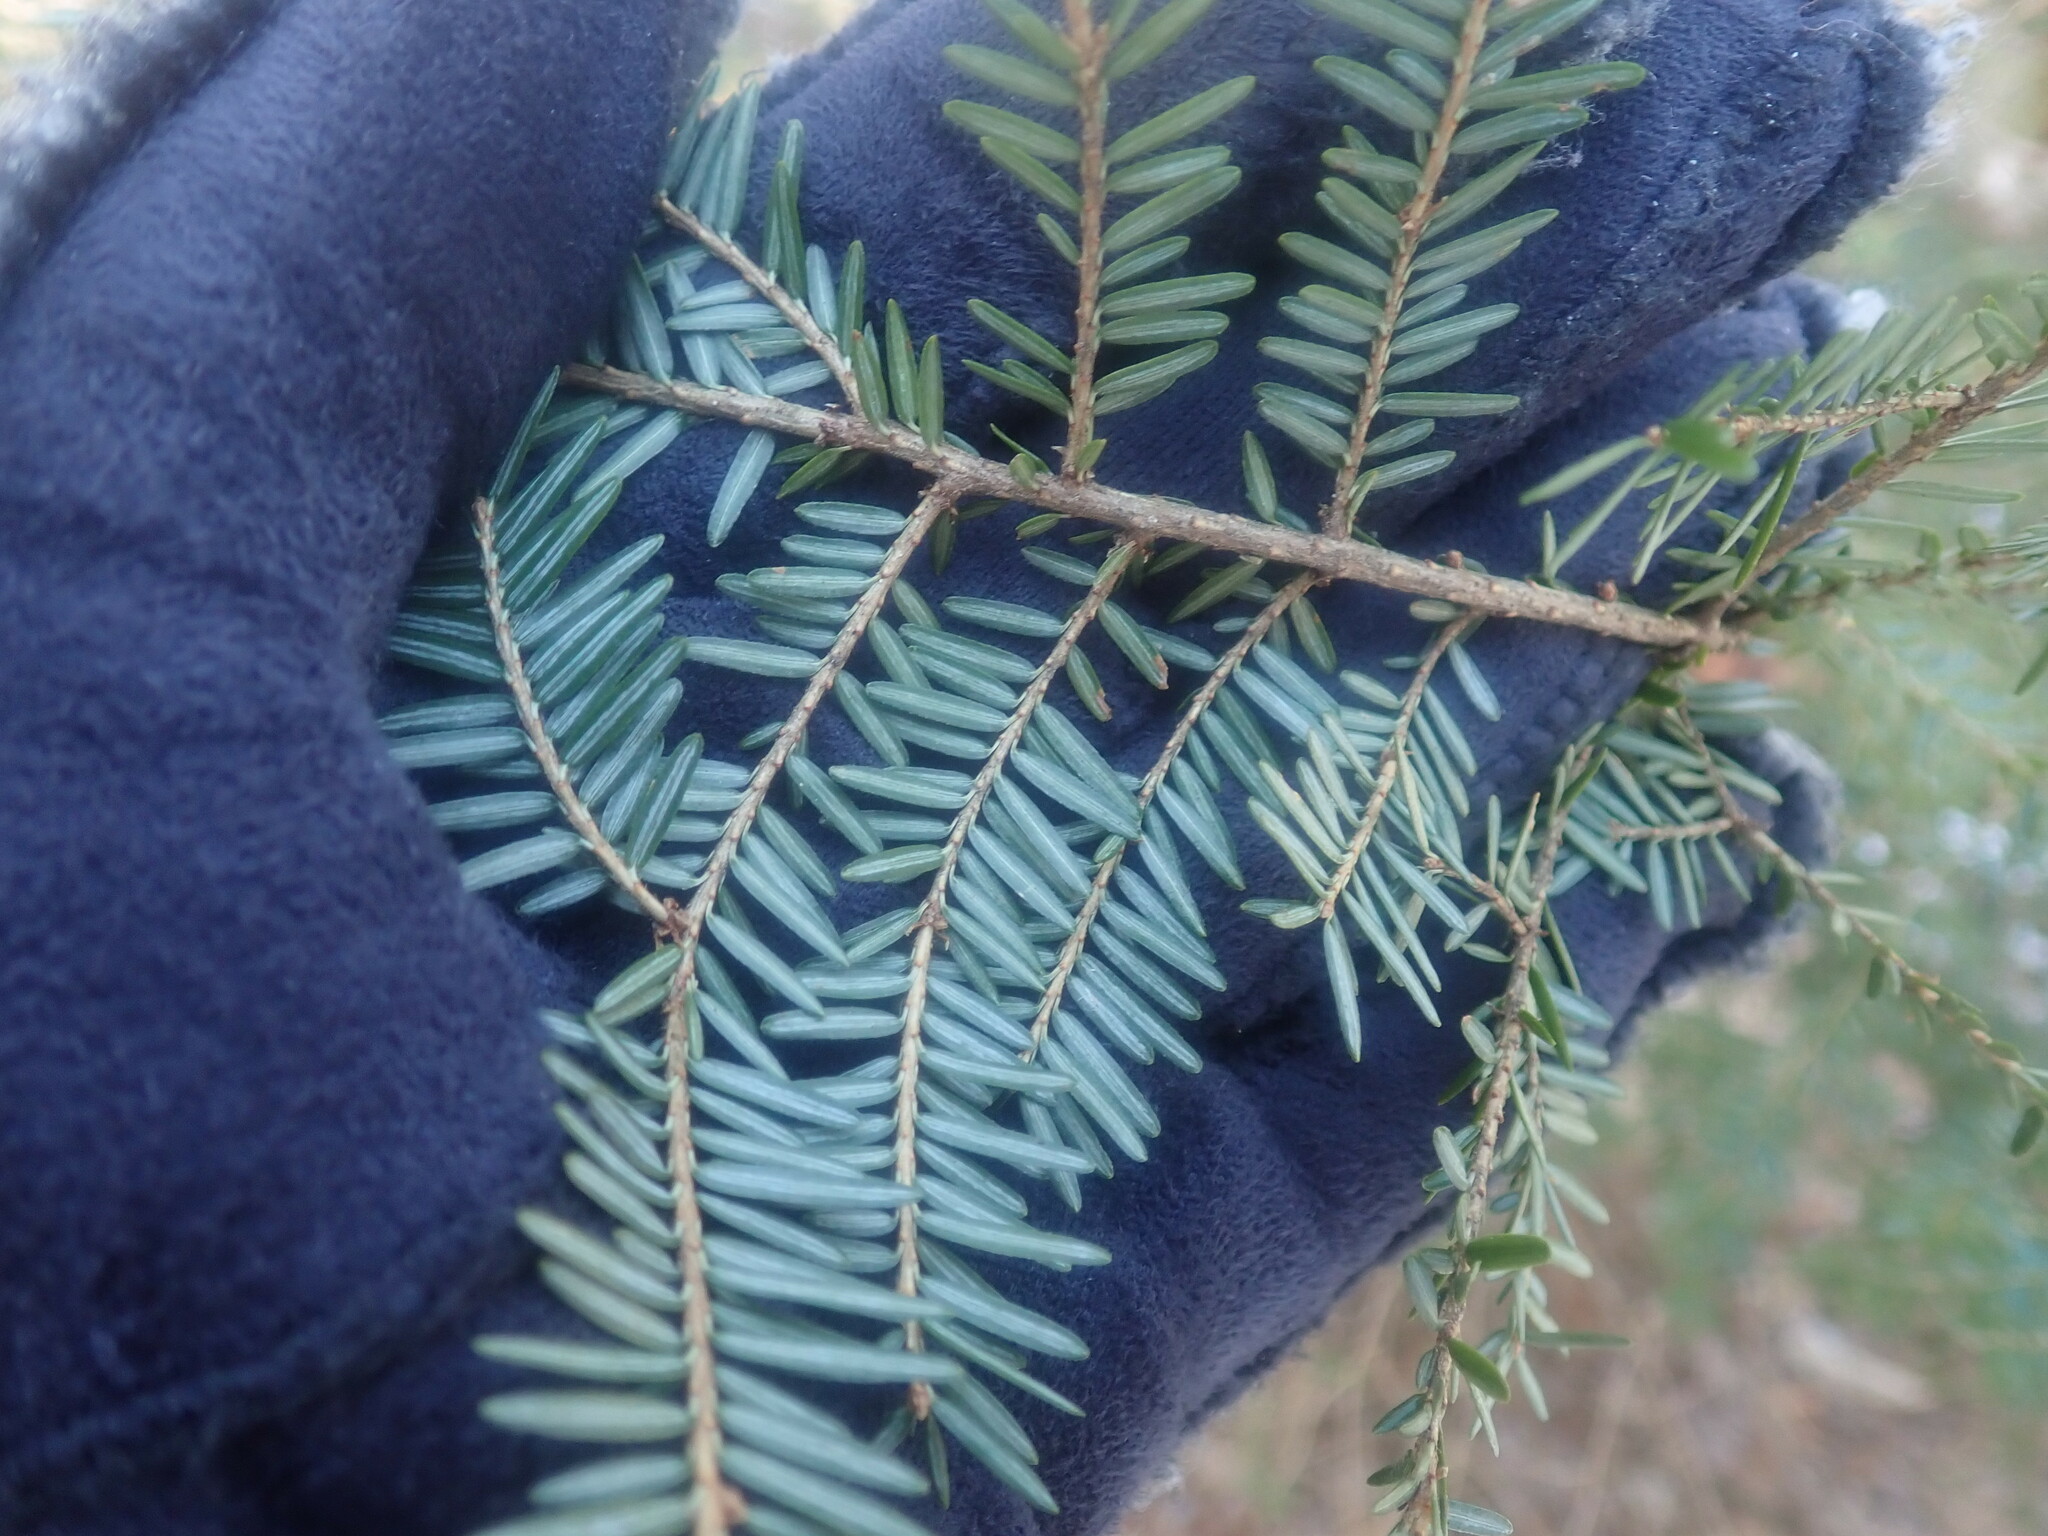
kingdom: Plantae
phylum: Tracheophyta
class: Pinopsida
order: Pinales
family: Pinaceae
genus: Tsuga
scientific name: Tsuga canadensis
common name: Eastern hemlock
